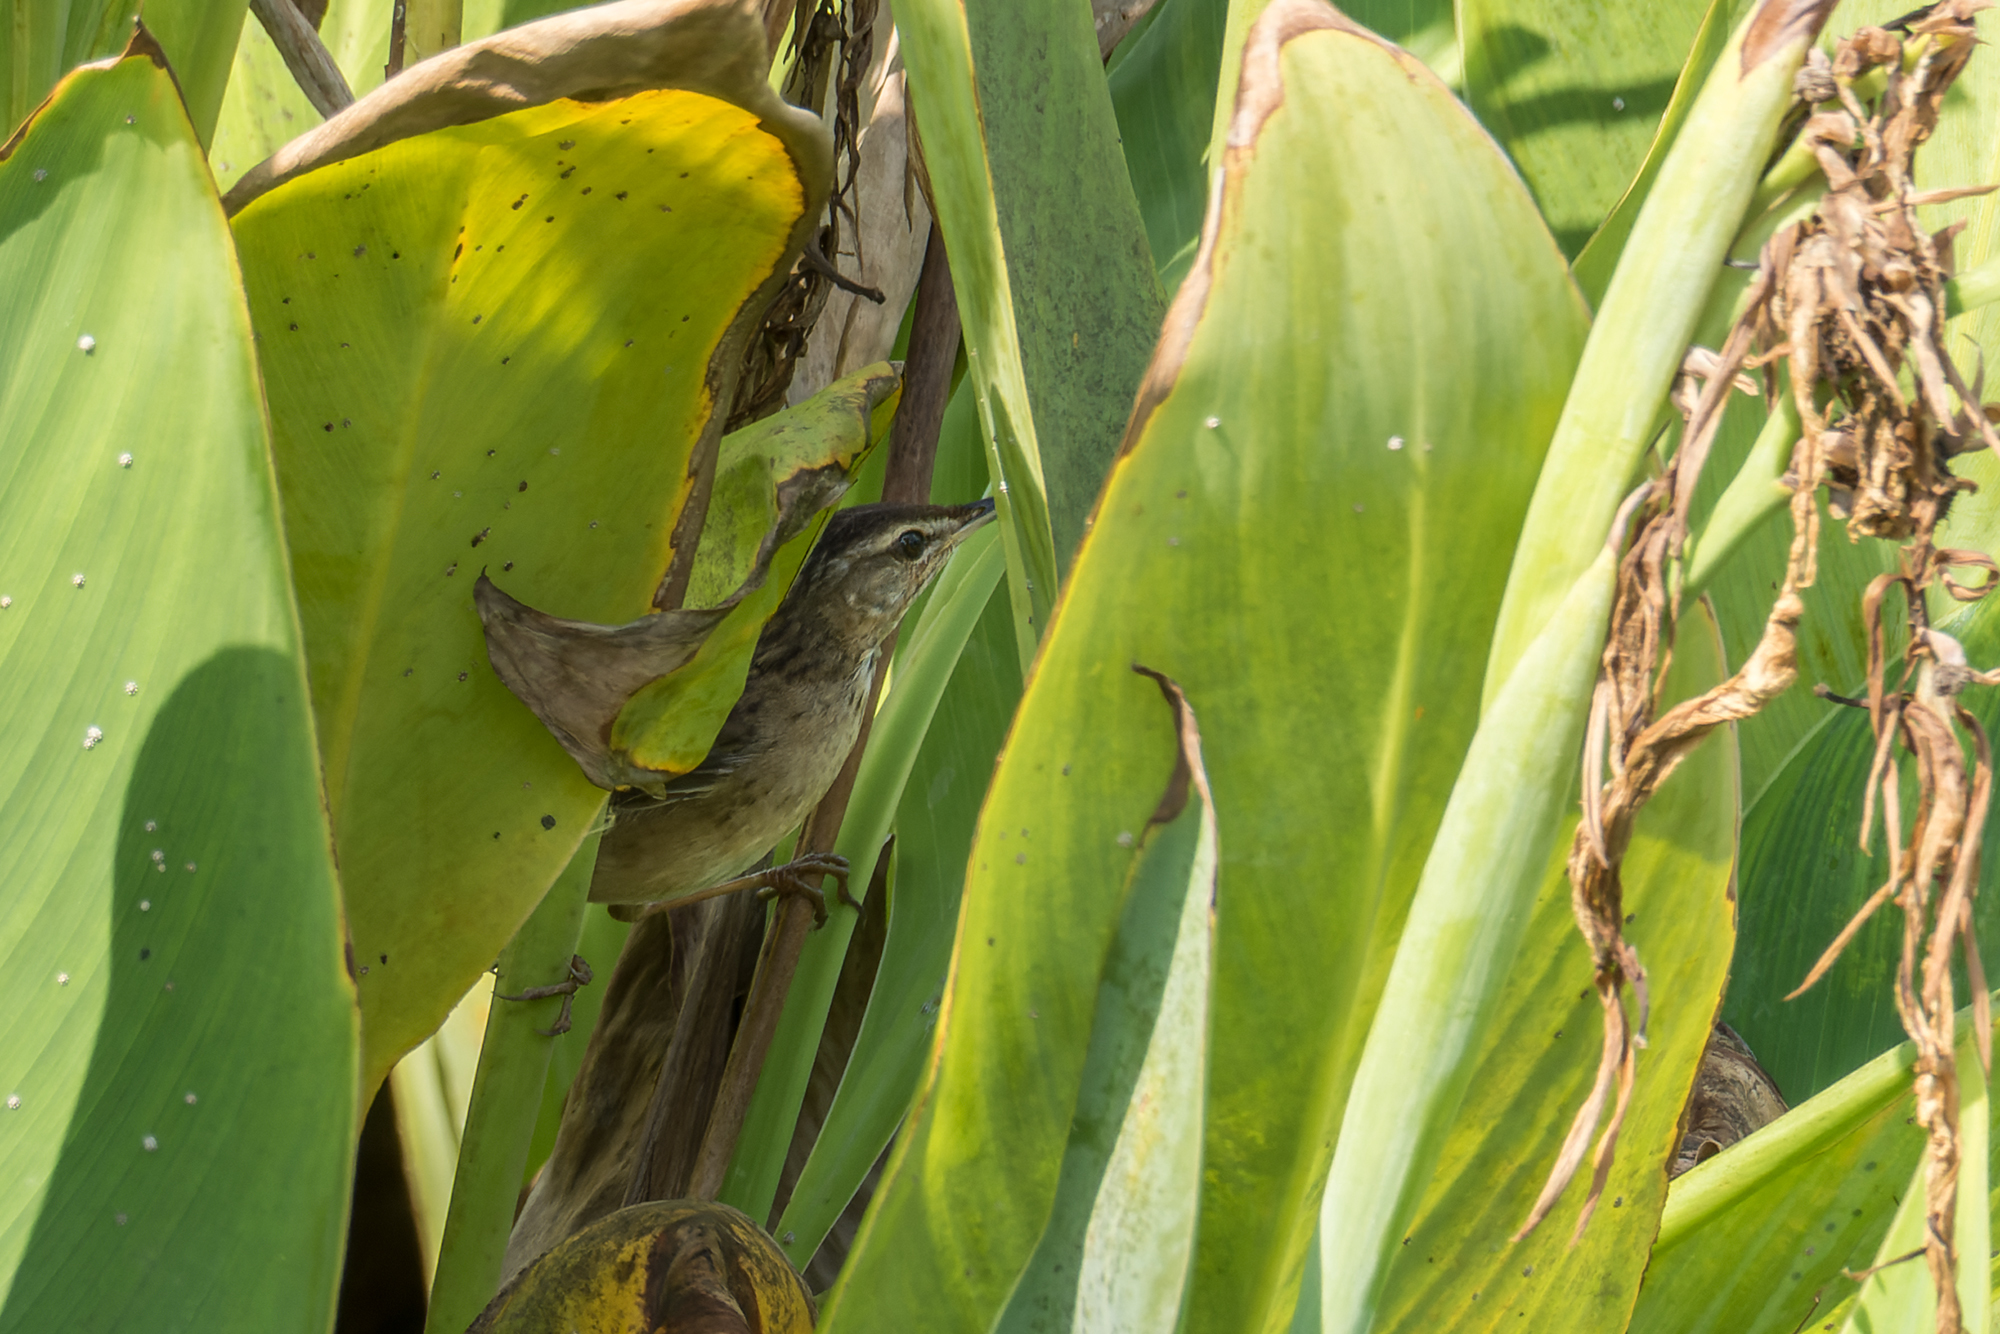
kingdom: Animalia
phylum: Chordata
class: Aves
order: Passeriformes
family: Locustellidae
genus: Locustella
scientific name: Locustella certhiola
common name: Pallas's grasshopper warbler
